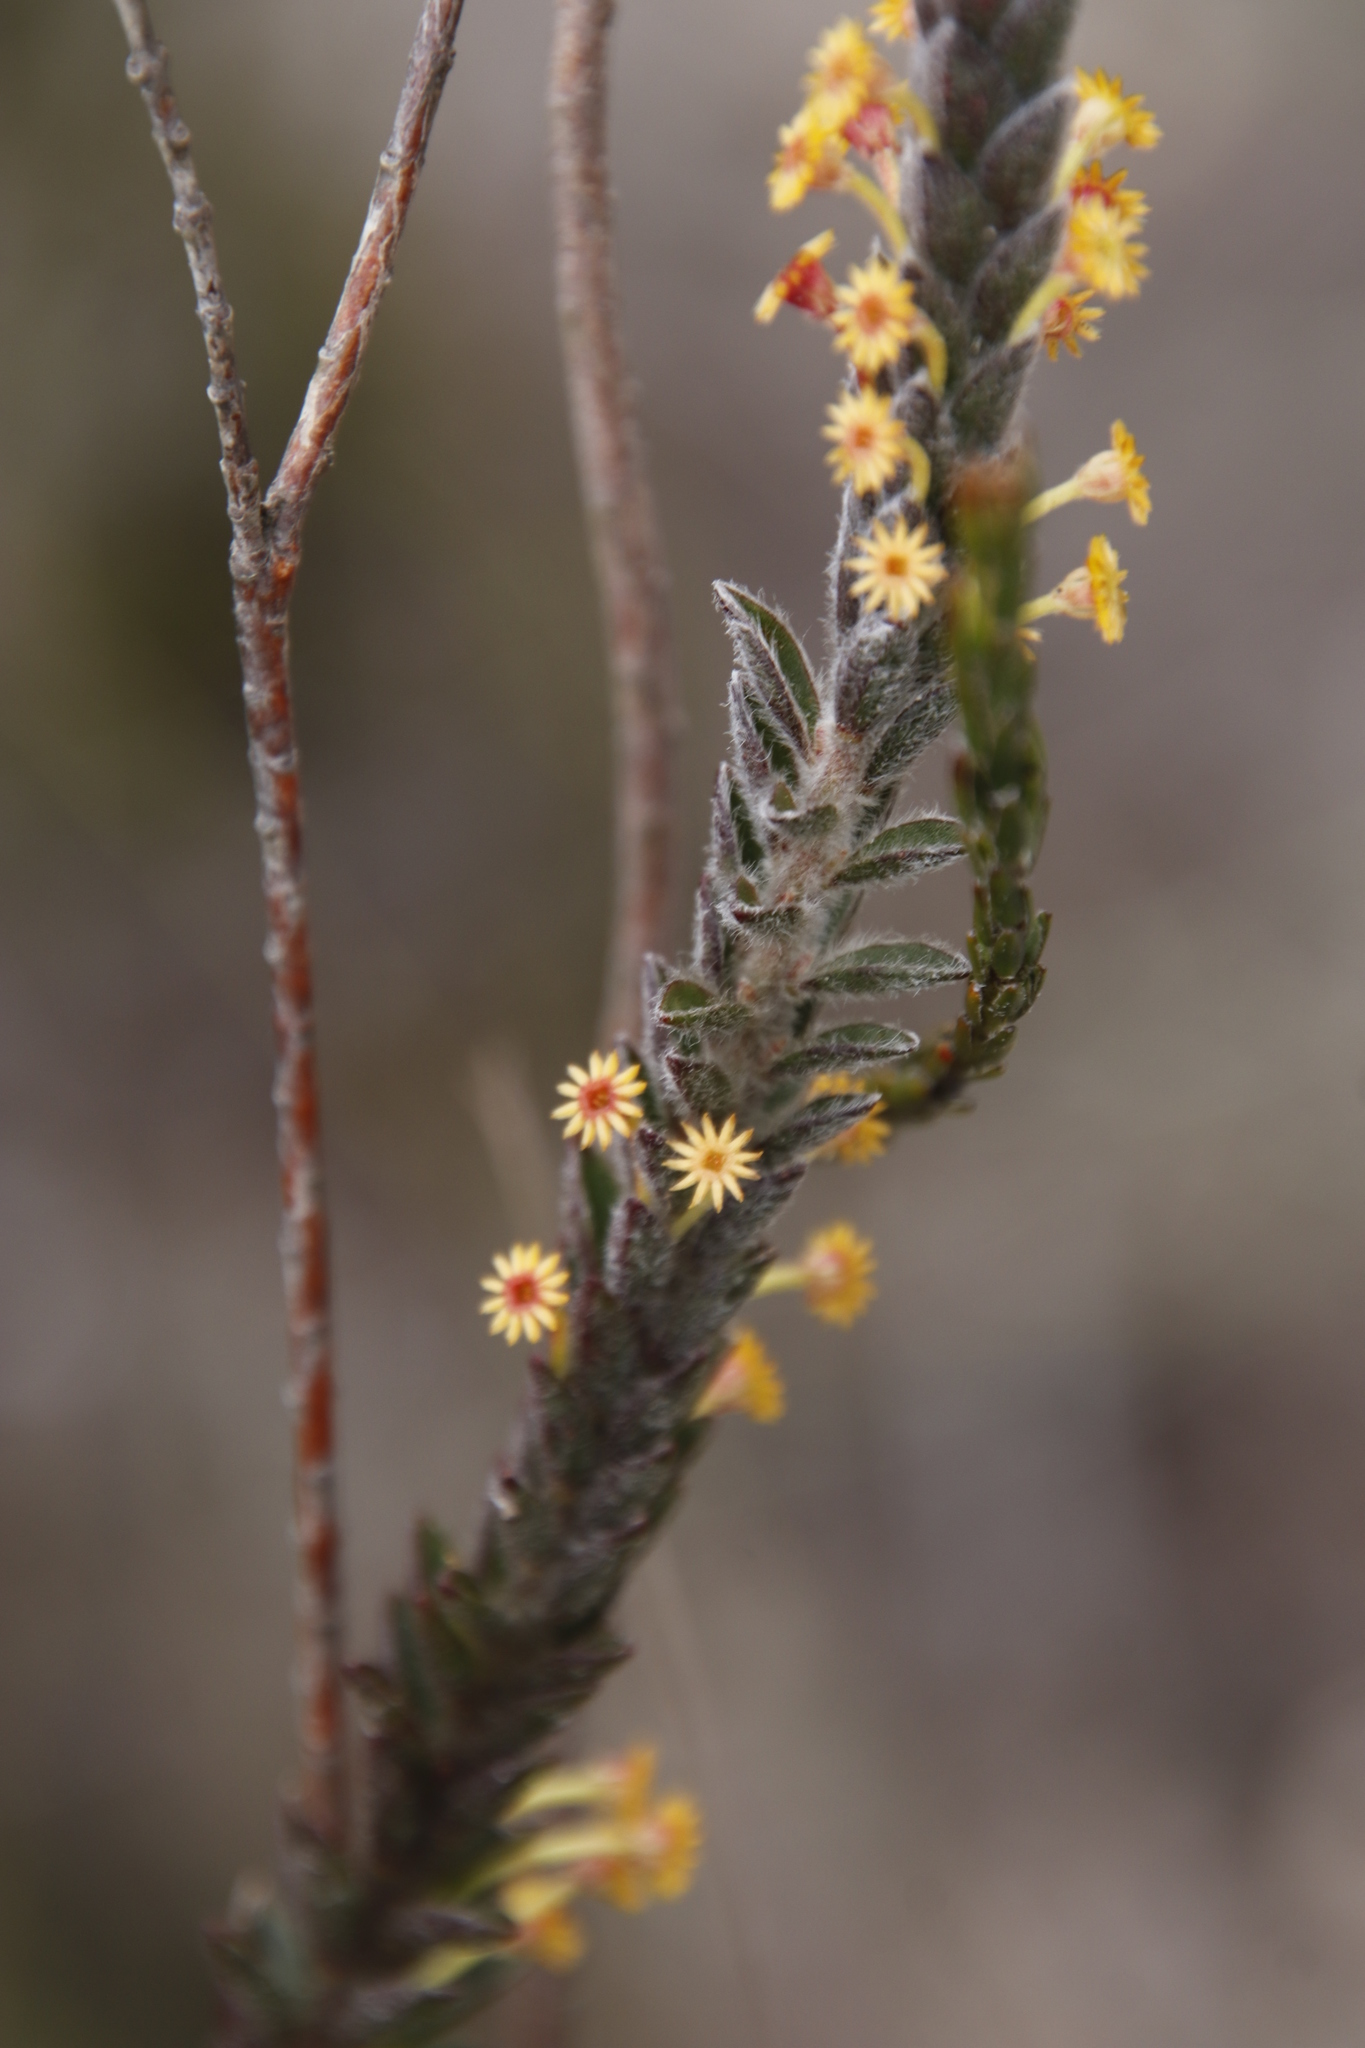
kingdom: Plantae
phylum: Tracheophyta
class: Magnoliopsida
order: Malvales
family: Thymelaeaceae
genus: Struthiola
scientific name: Struthiola tomentosa
